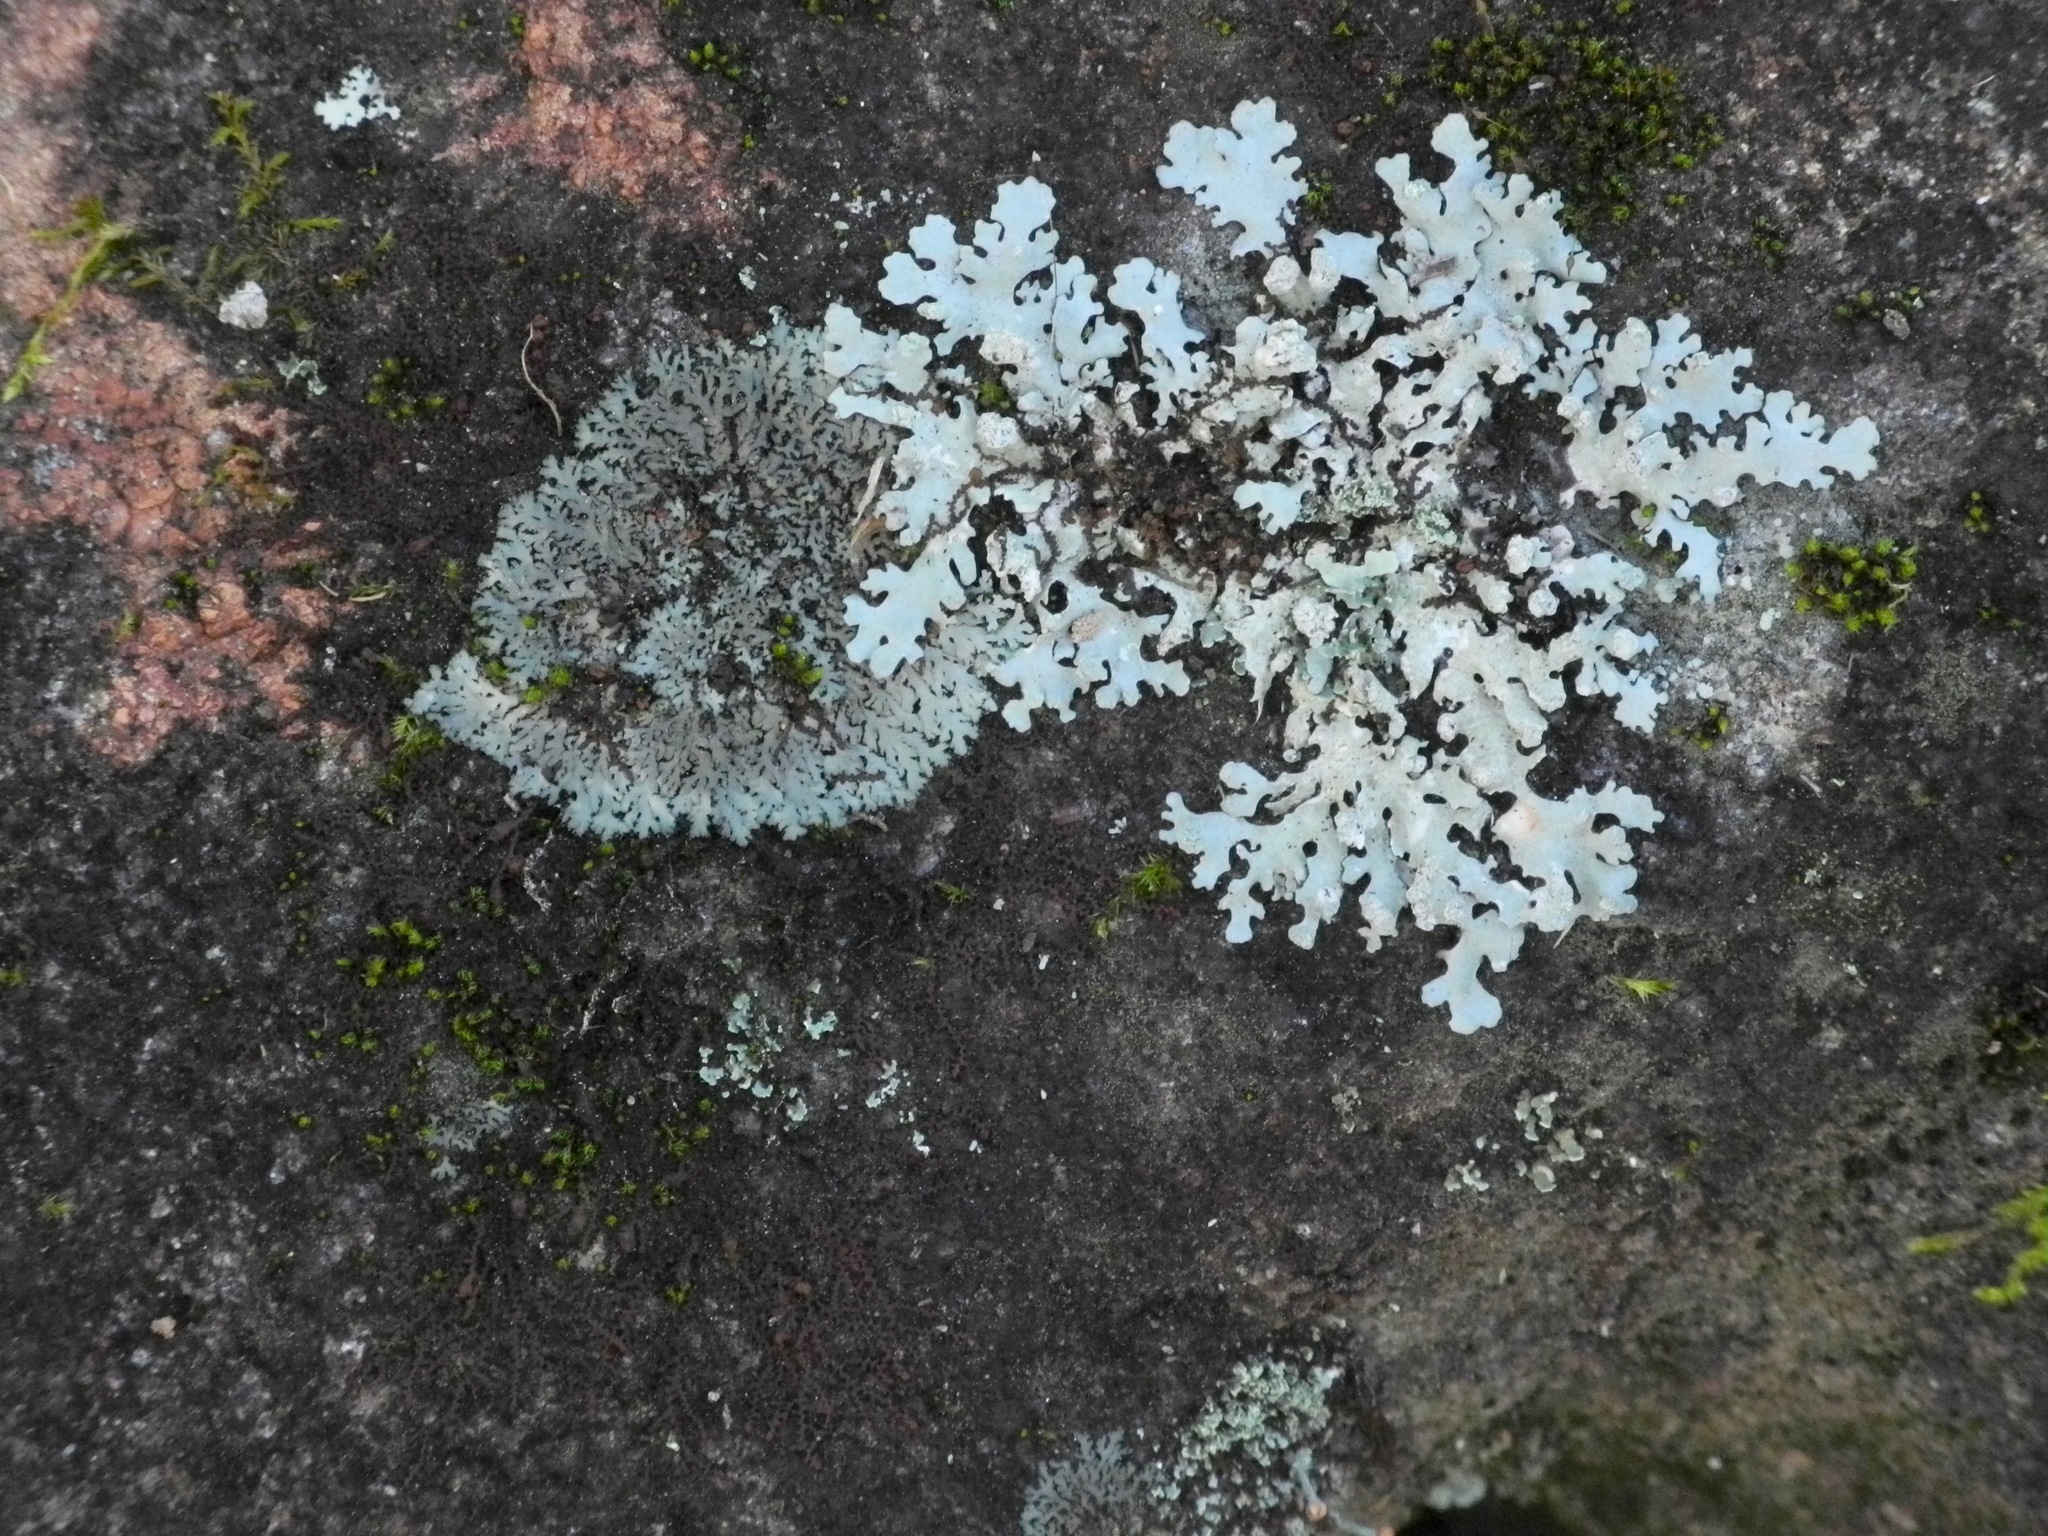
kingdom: Fungi
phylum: Ascomycota
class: Lecanoromycetes
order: Caliciales
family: Physciaceae
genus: Phaeophyscia
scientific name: Phaeophyscia rubropulchra
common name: Orange-cored shadow lichen
